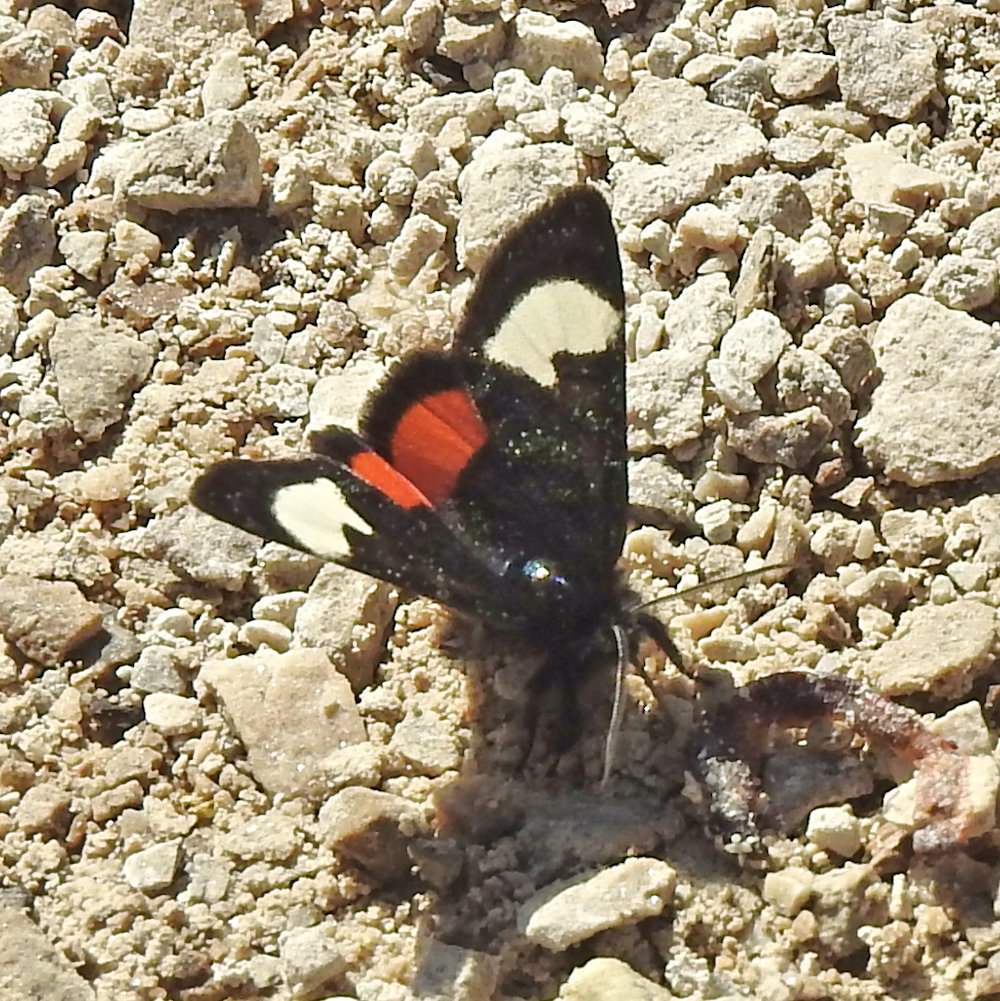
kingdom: Animalia
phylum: Arthropoda
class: Insecta
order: Lepidoptera
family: Noctuidae
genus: Psychomorpha
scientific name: Psychomorpha epimenis
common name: Grapevine epimenis moth
